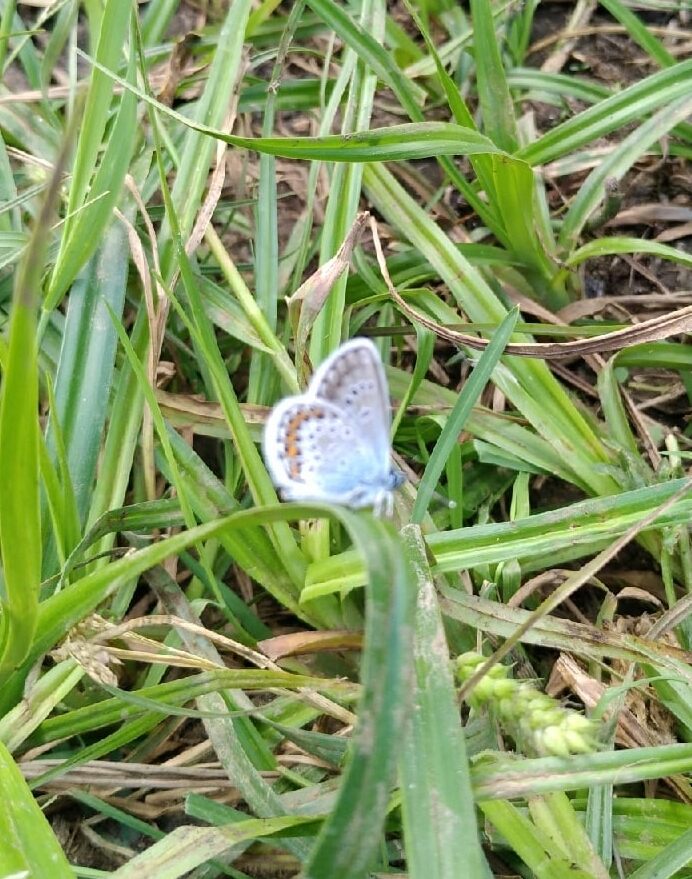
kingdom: Animalia
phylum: Arthropoda
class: Insecta
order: Lepidoptera
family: Lycaenidae
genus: Plebejus
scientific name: Plebejus argus
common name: Silver-studded blue
